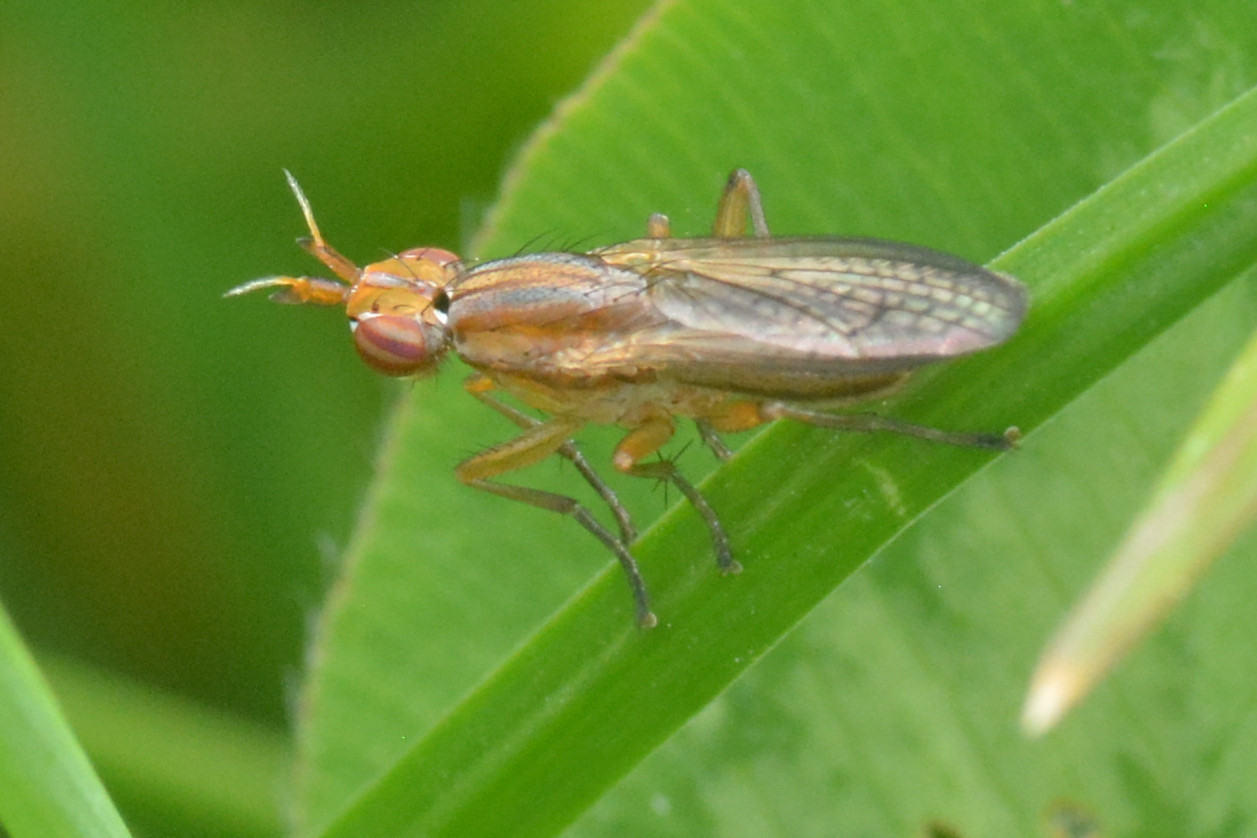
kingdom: Animalia
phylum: Arthropoda
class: Insecta
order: Diptera
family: Sciomyzidae
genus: Limnia
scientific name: Limnia unguicornis
